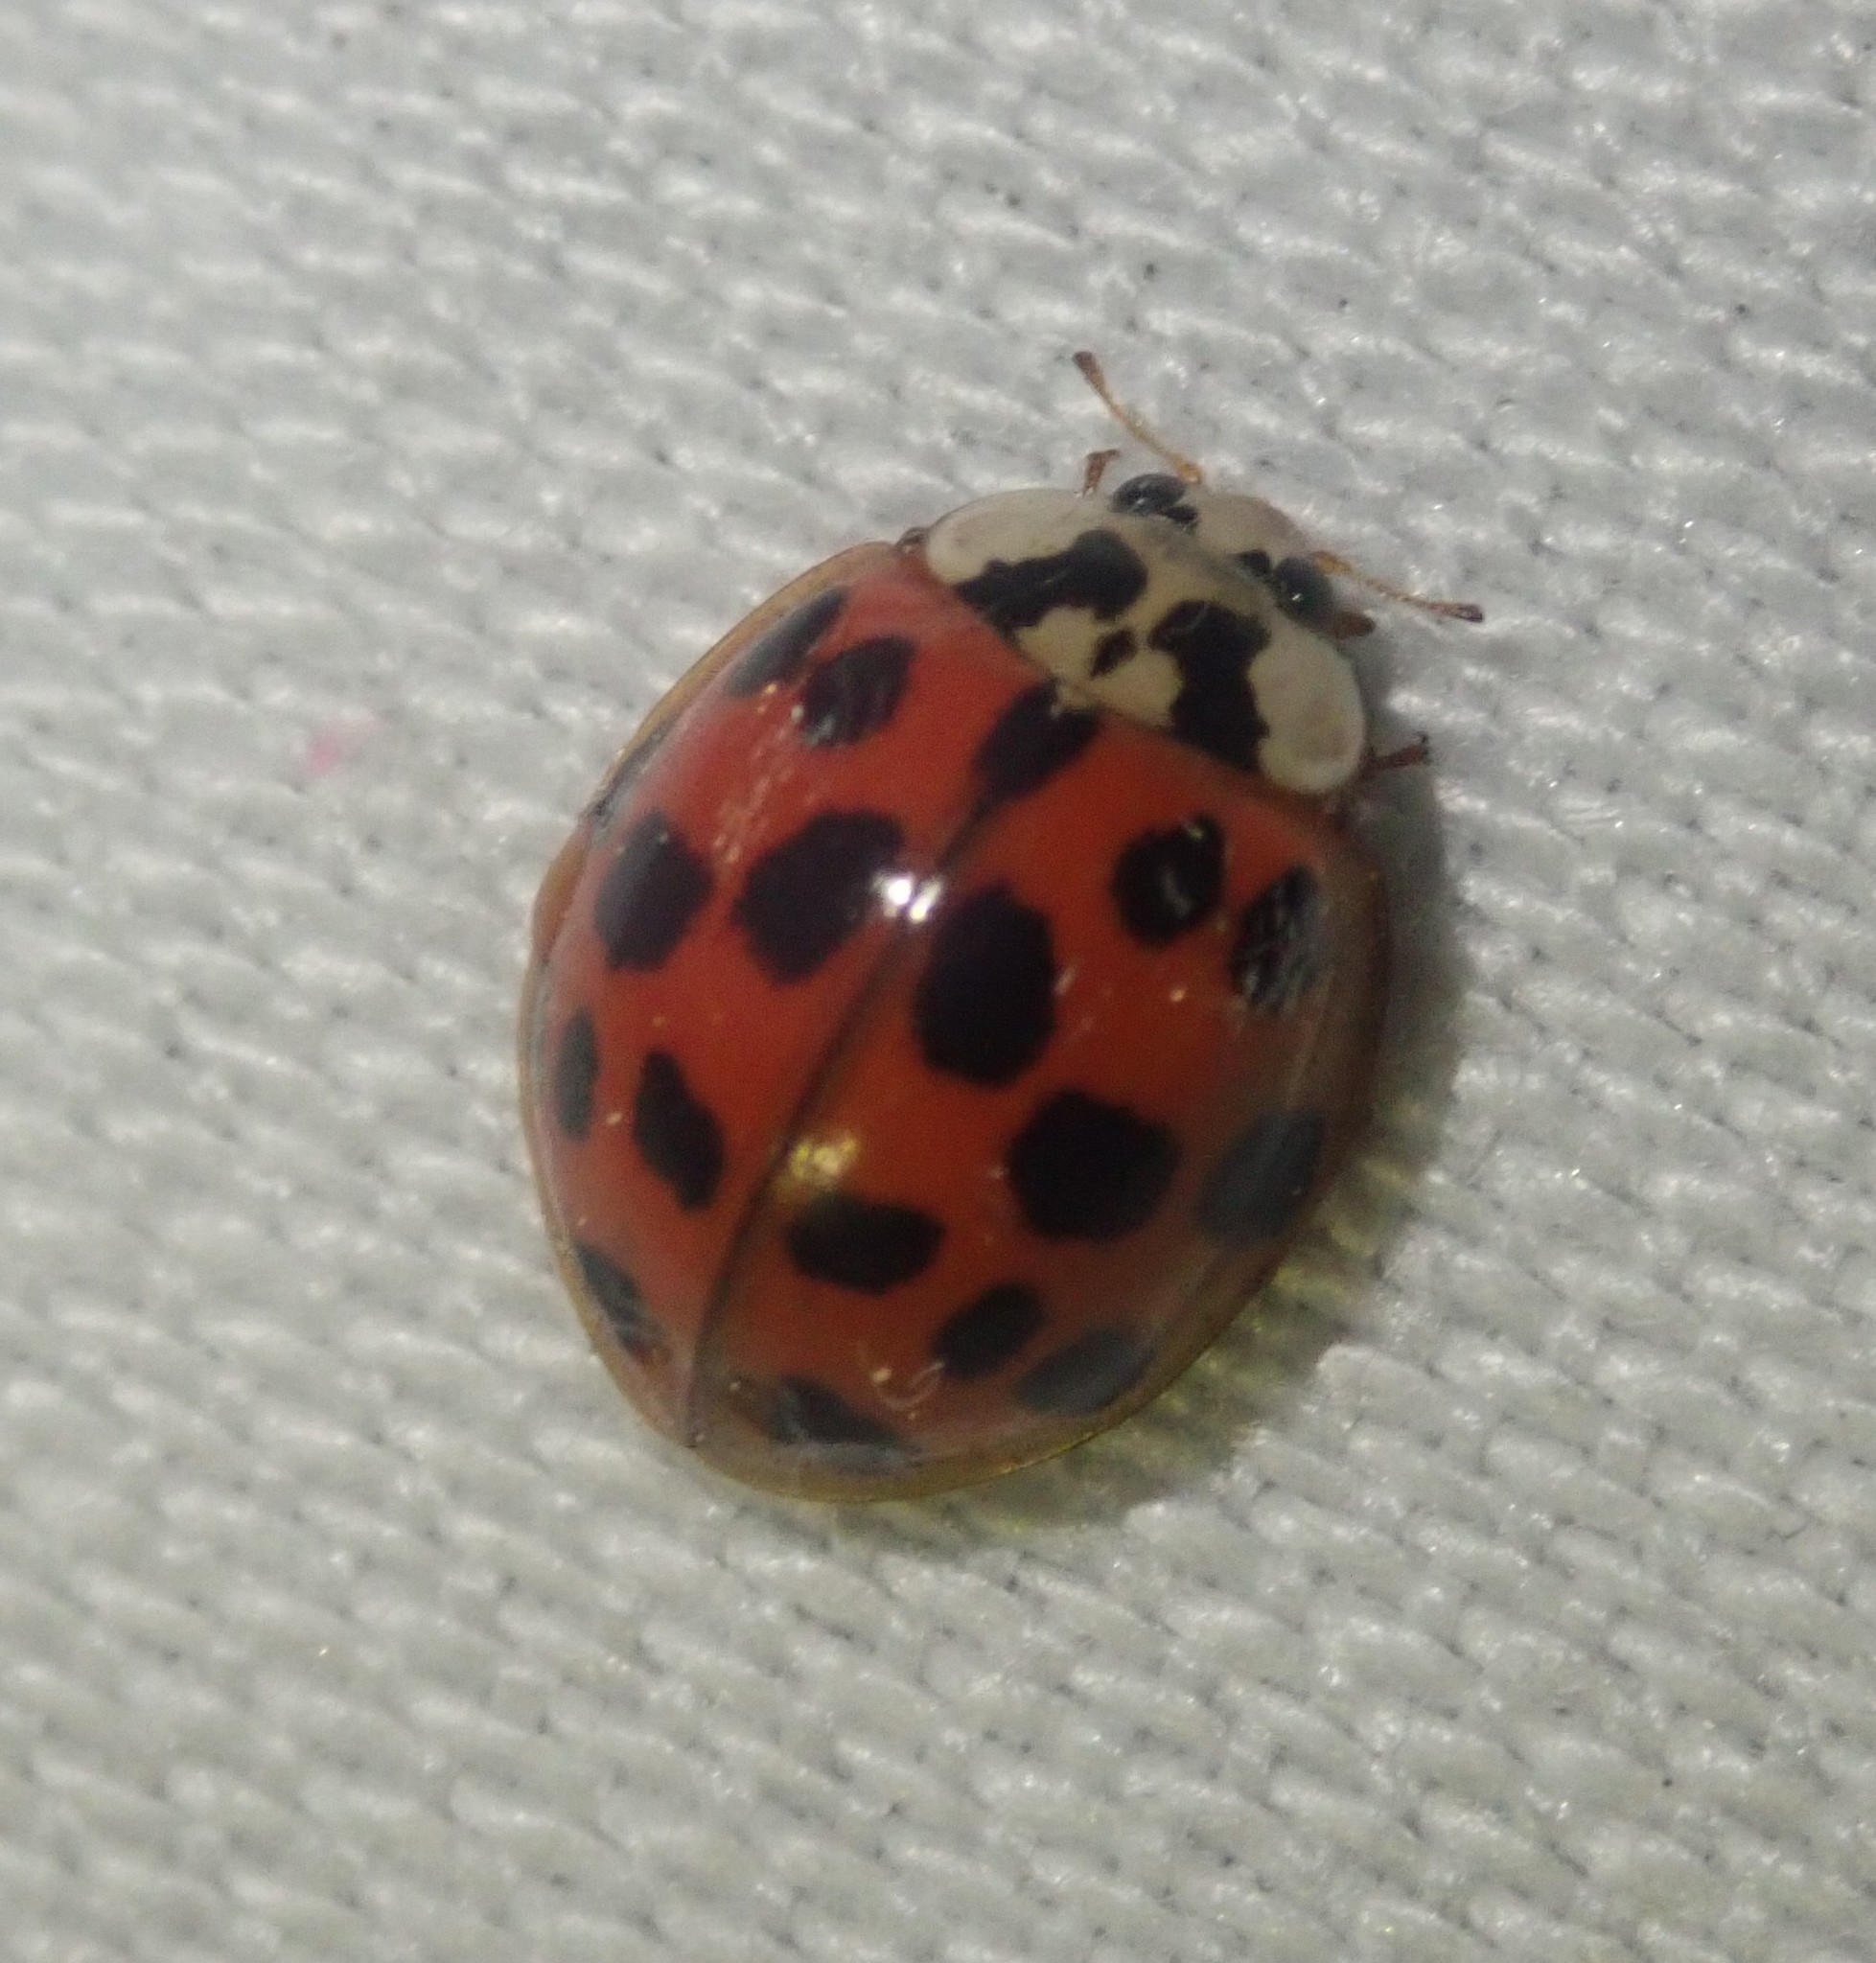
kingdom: Animalia
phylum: Arthropoda
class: Insecta
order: Coleoptera
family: Coccinellidae
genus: Harmonia
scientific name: Harmonia axyridis
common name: Harlequin ladybird
